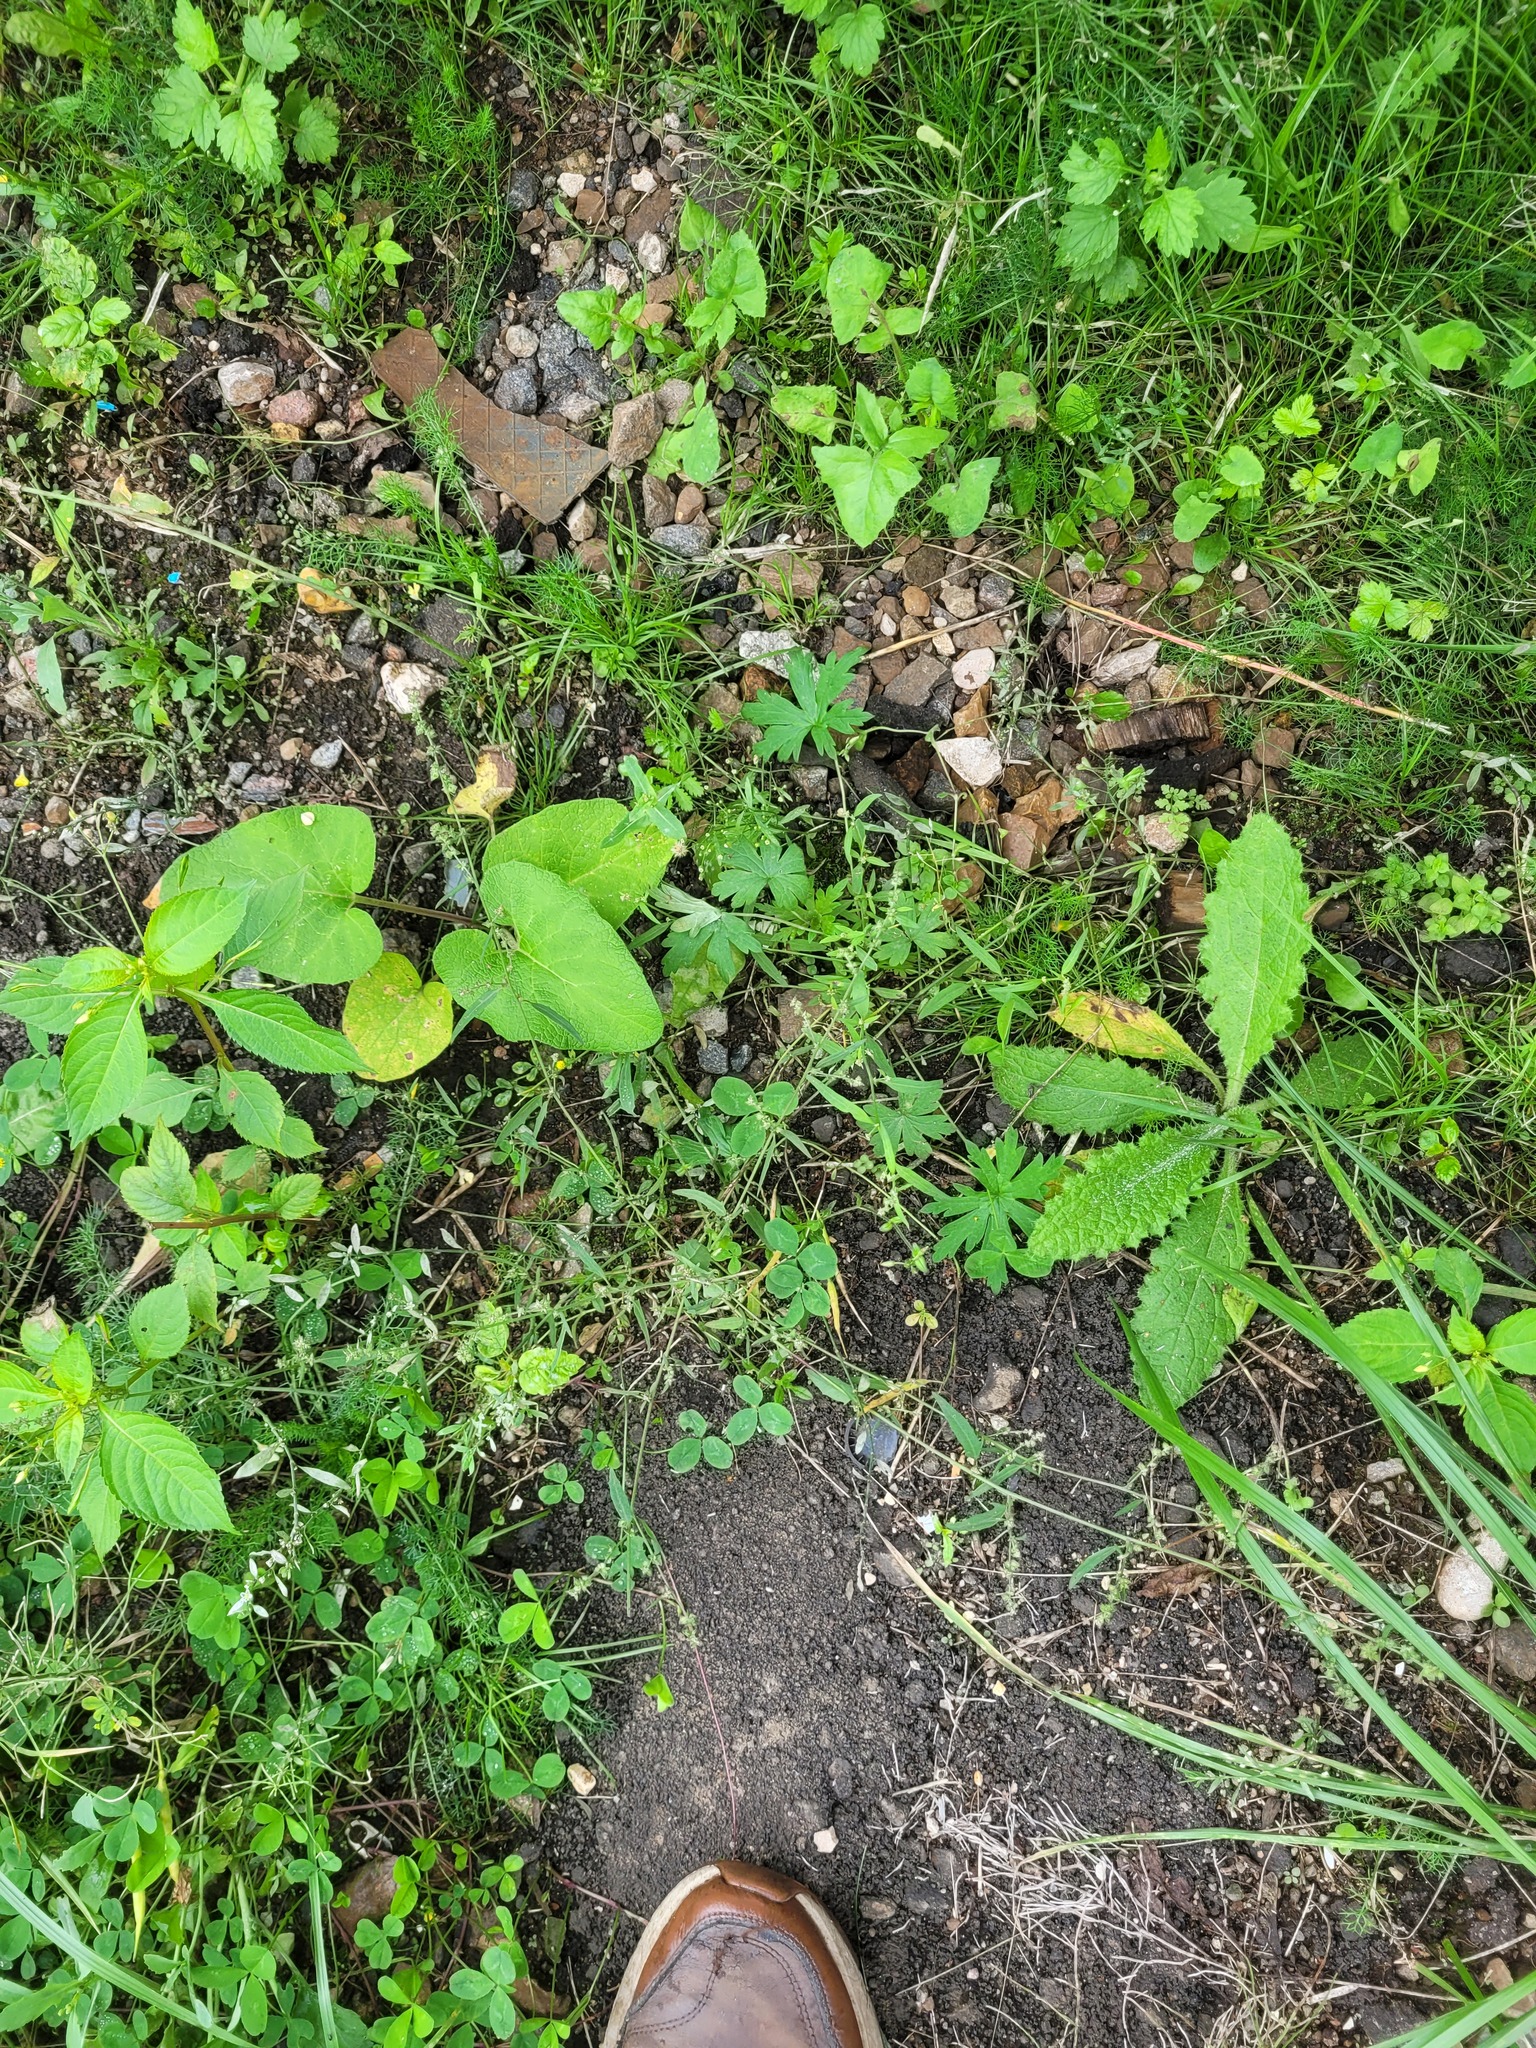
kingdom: Plantae
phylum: Tracheophyta
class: Magnoliopsida
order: Caryophyllales
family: Amaranthaceae
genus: Atriplex
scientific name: Atriplex patula
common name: Common orache
